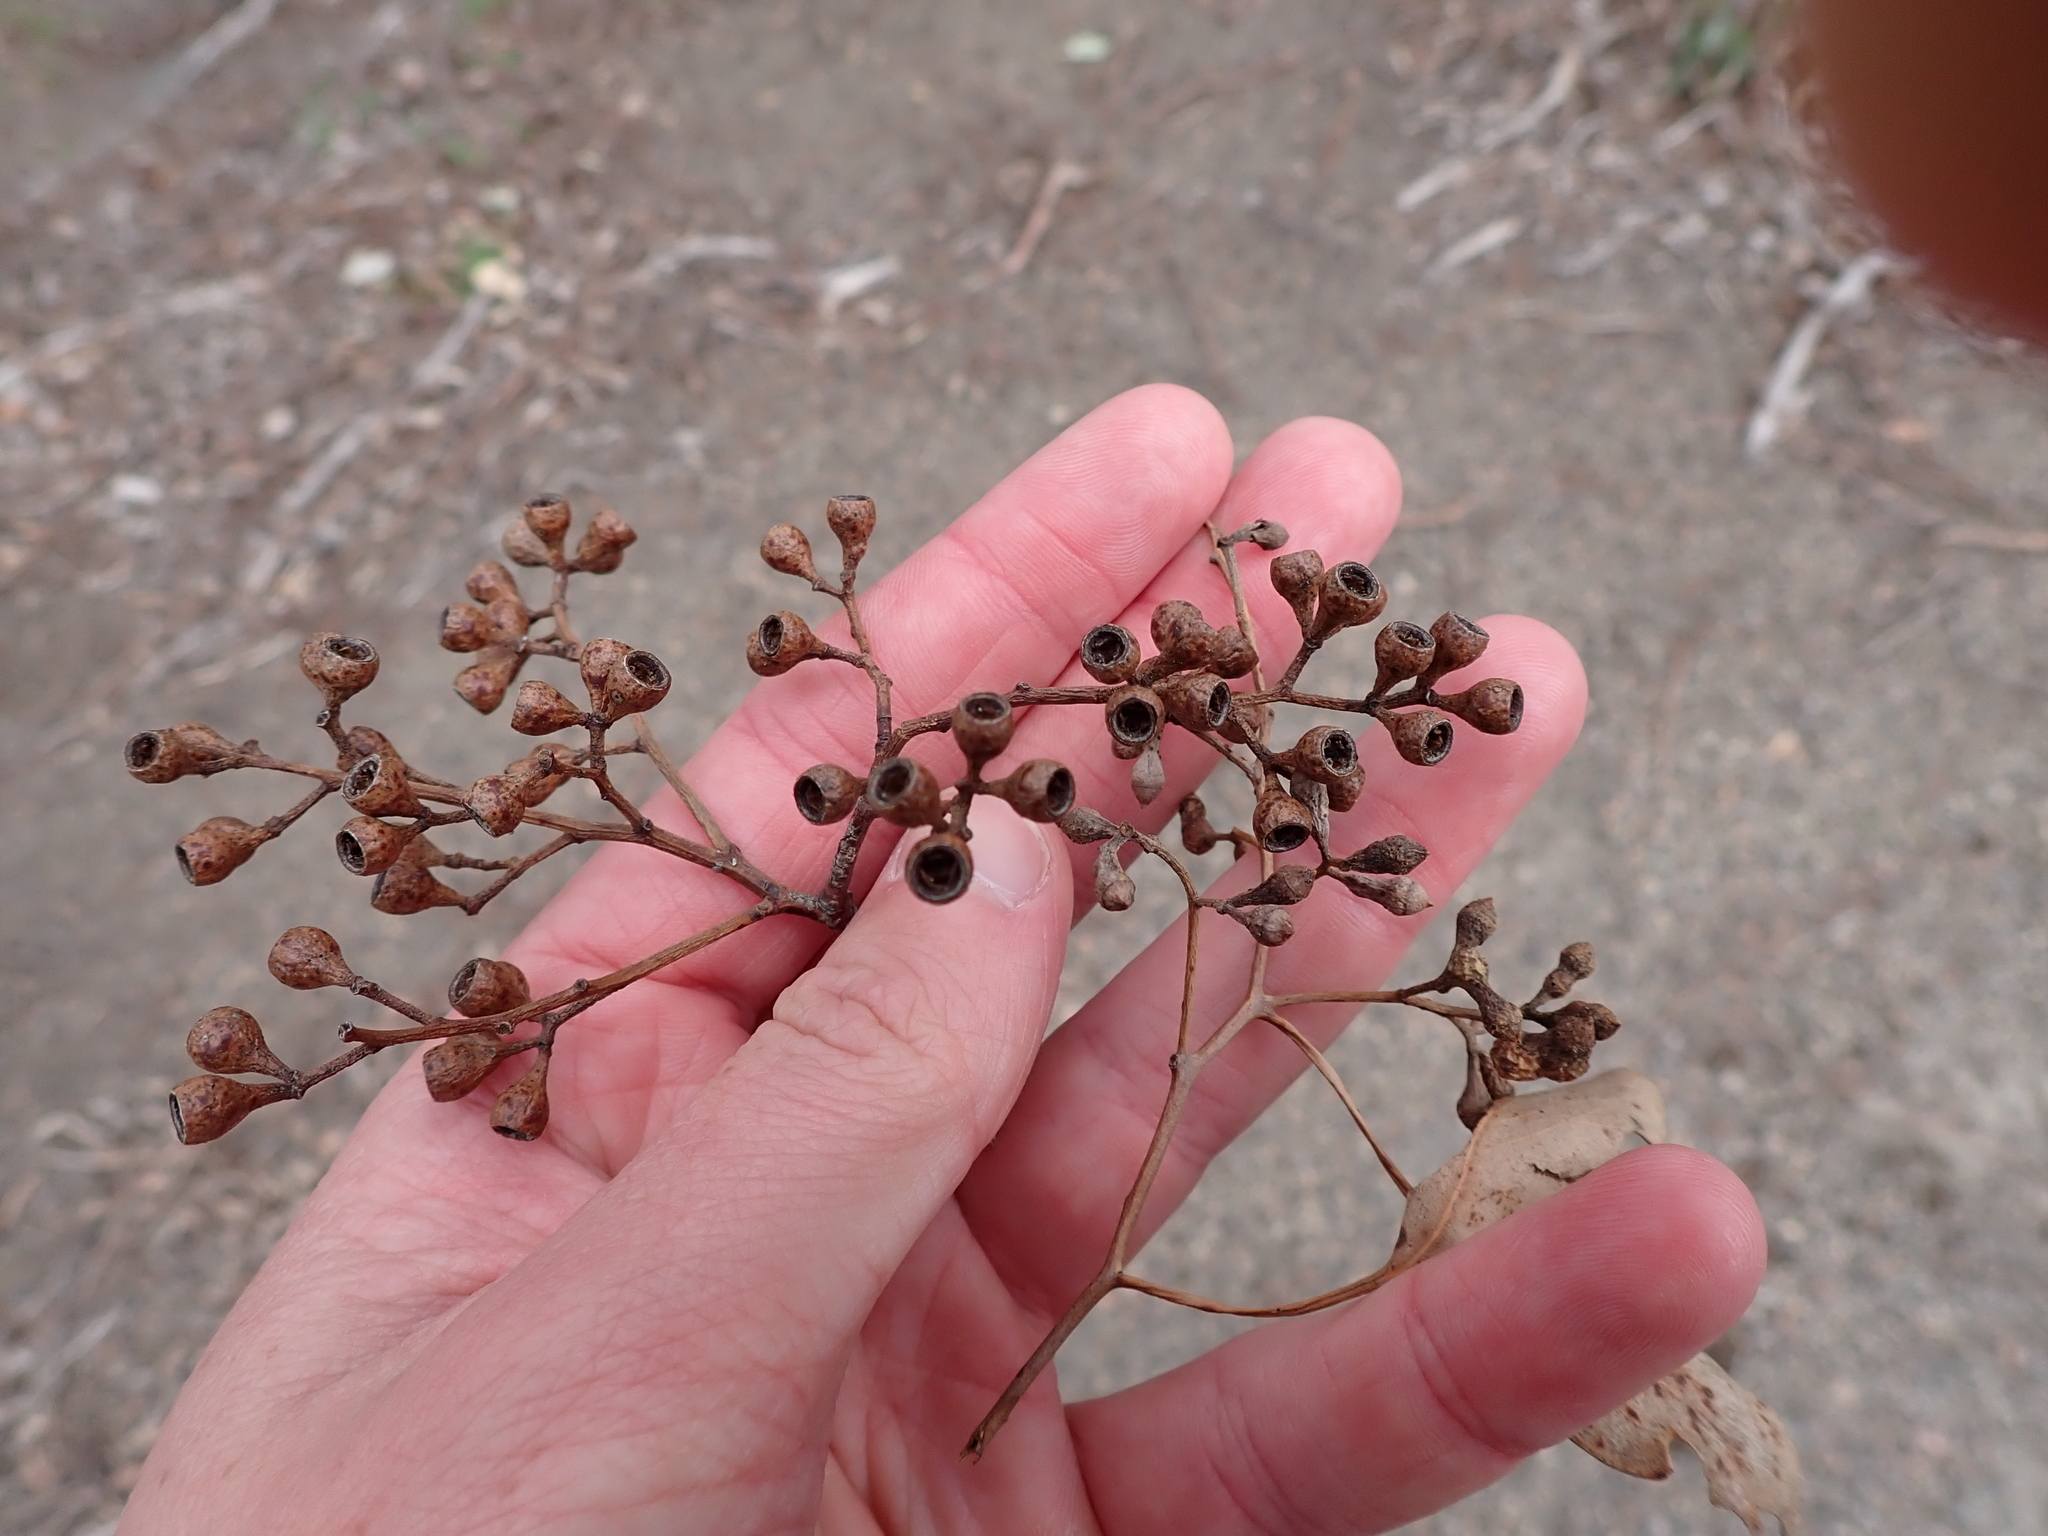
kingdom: Plantae
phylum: Tracheophyta
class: Magnoliopsida
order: Myrtales
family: Myrtaceae
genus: Eucalyptus
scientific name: Eucalyptus polyanthemos
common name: Red-box
